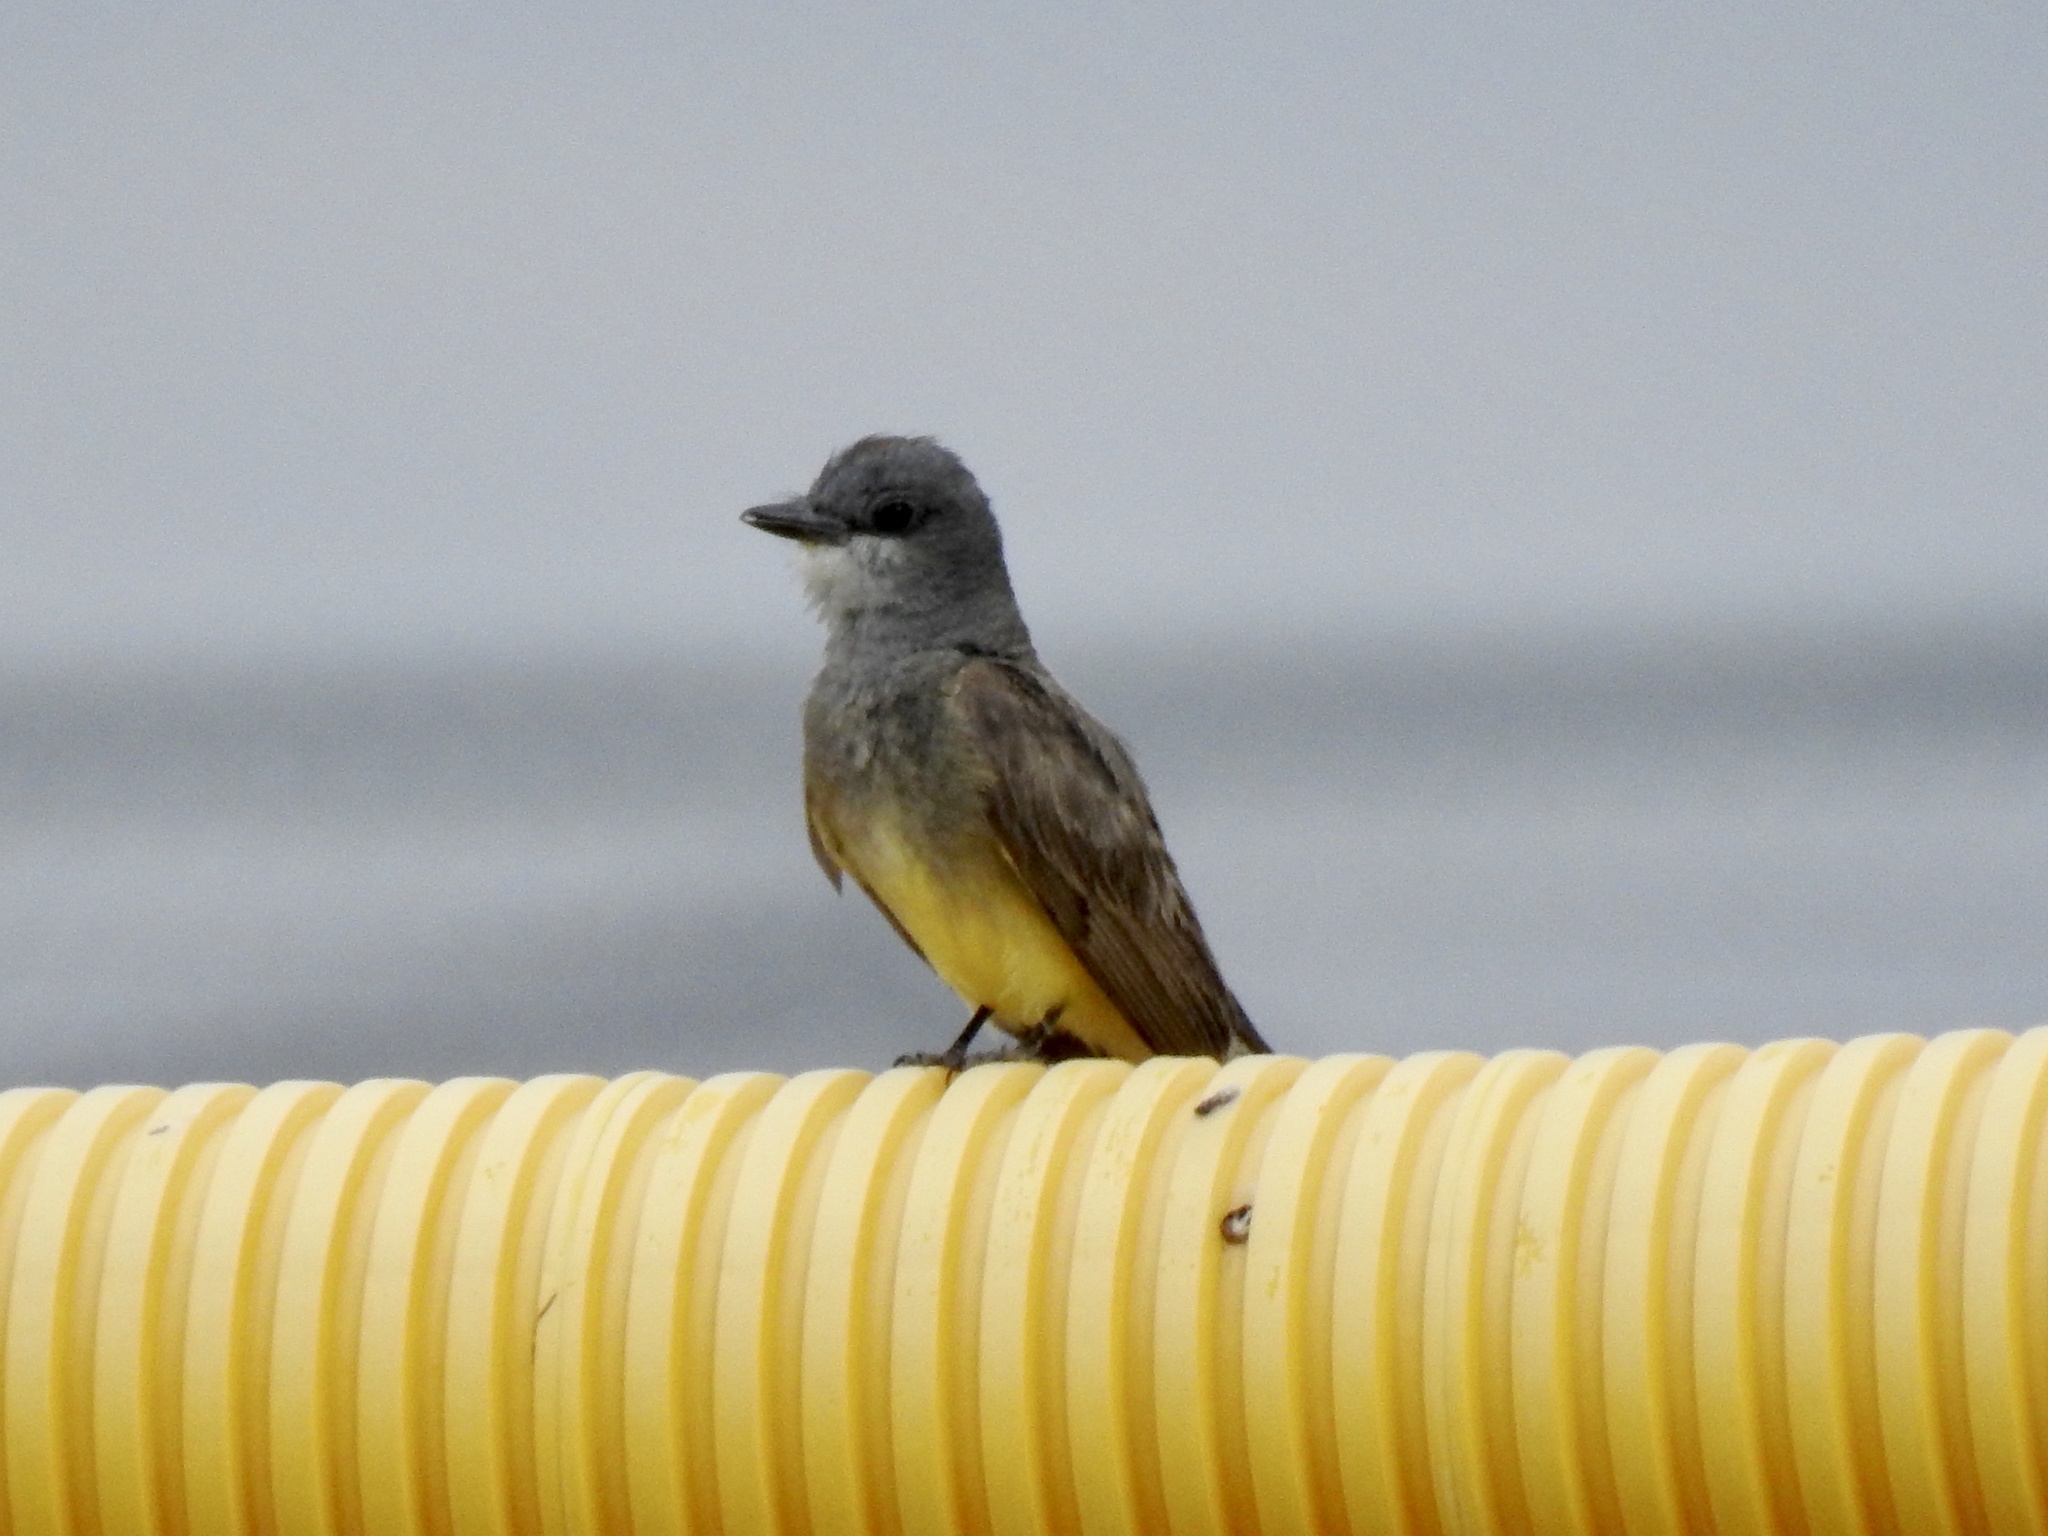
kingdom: Animalia
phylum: Chordata
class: Aves
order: Passeriformes
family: Tyrannidae
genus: Tyrannus
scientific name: Tyrannus vociferans
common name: Cassin's kingbird
